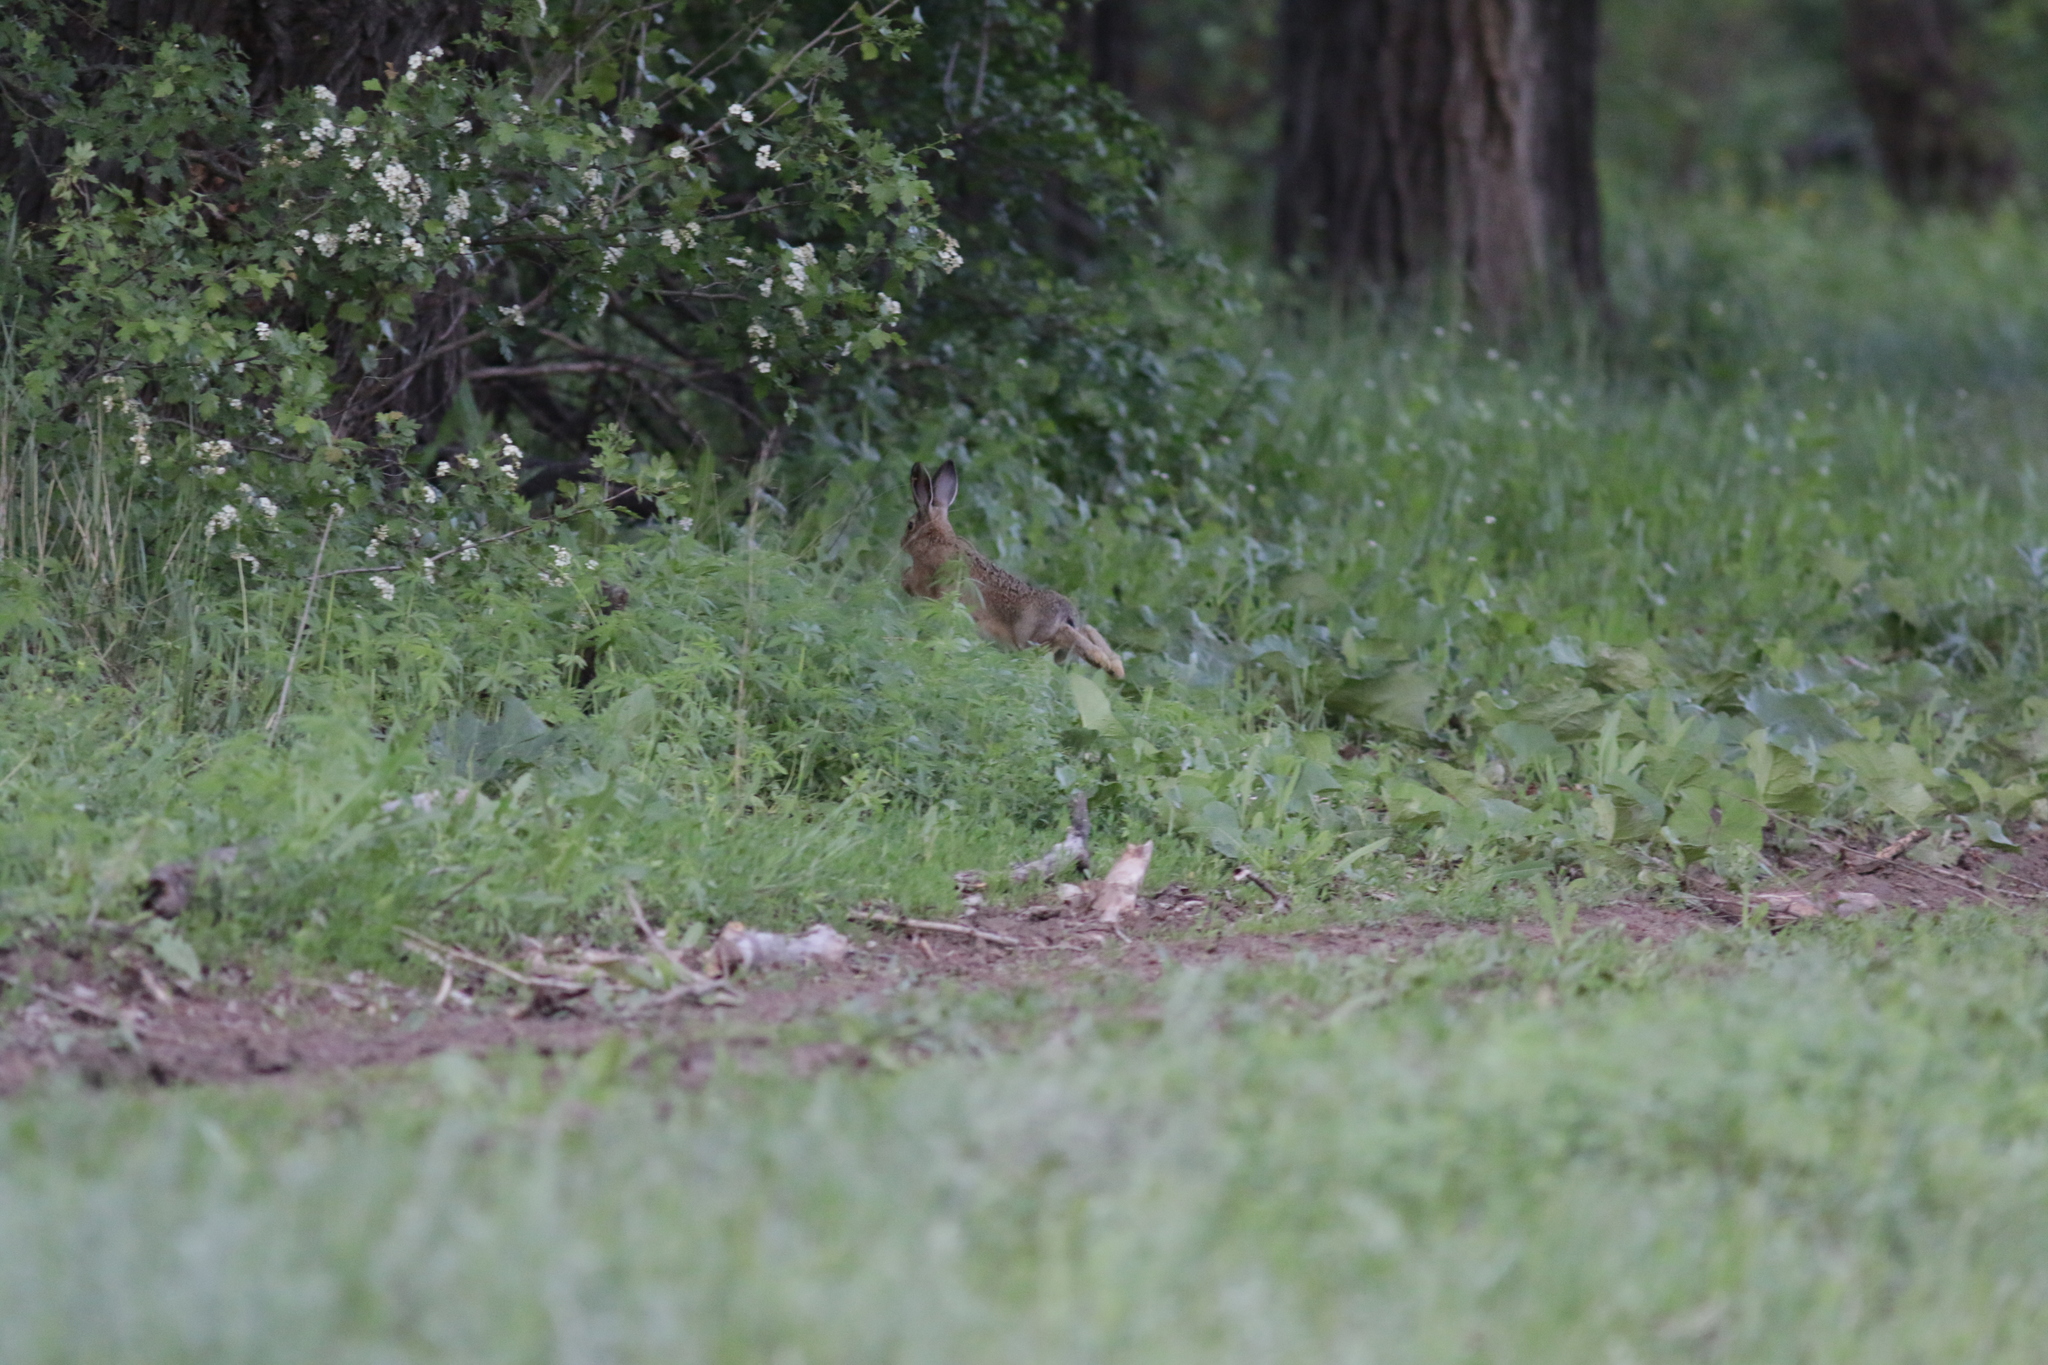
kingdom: Animalia
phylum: Chordata
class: Mammalia
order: Lagomorpha
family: Leporidae
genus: Lepus
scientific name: Lepus europaeus
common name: European hare
